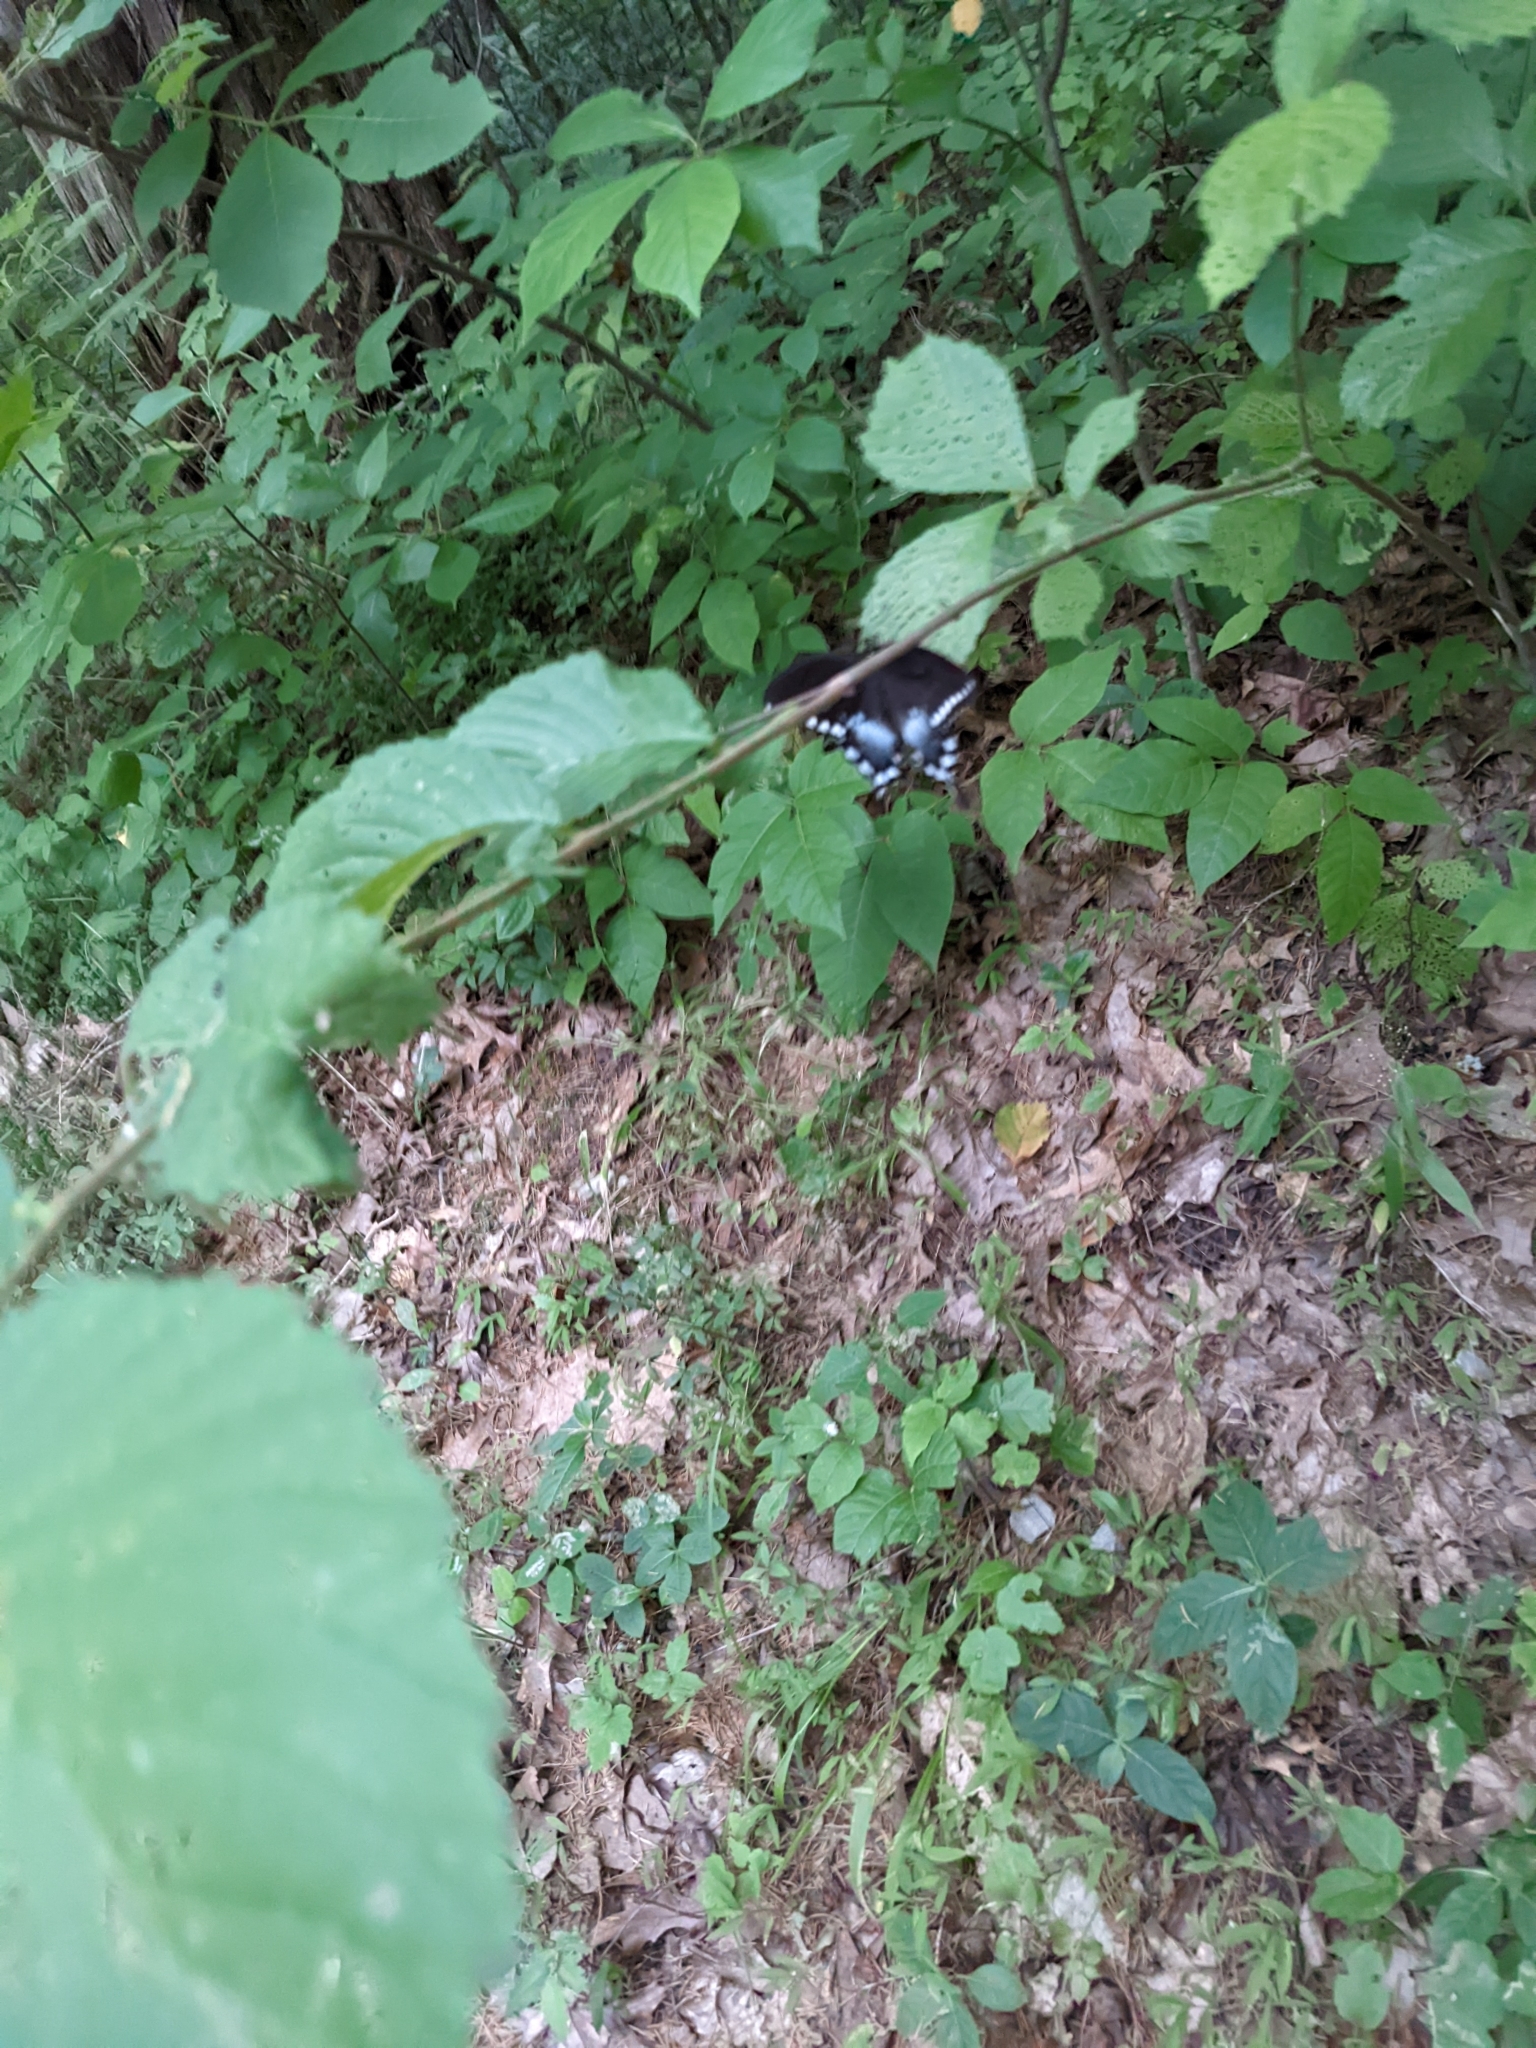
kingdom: Animalia
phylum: Arthropoda
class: Insecta
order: Lepidoptera
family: Papilionidae
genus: Papilio
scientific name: Papilio troilus
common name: Spicebush swallowtail
